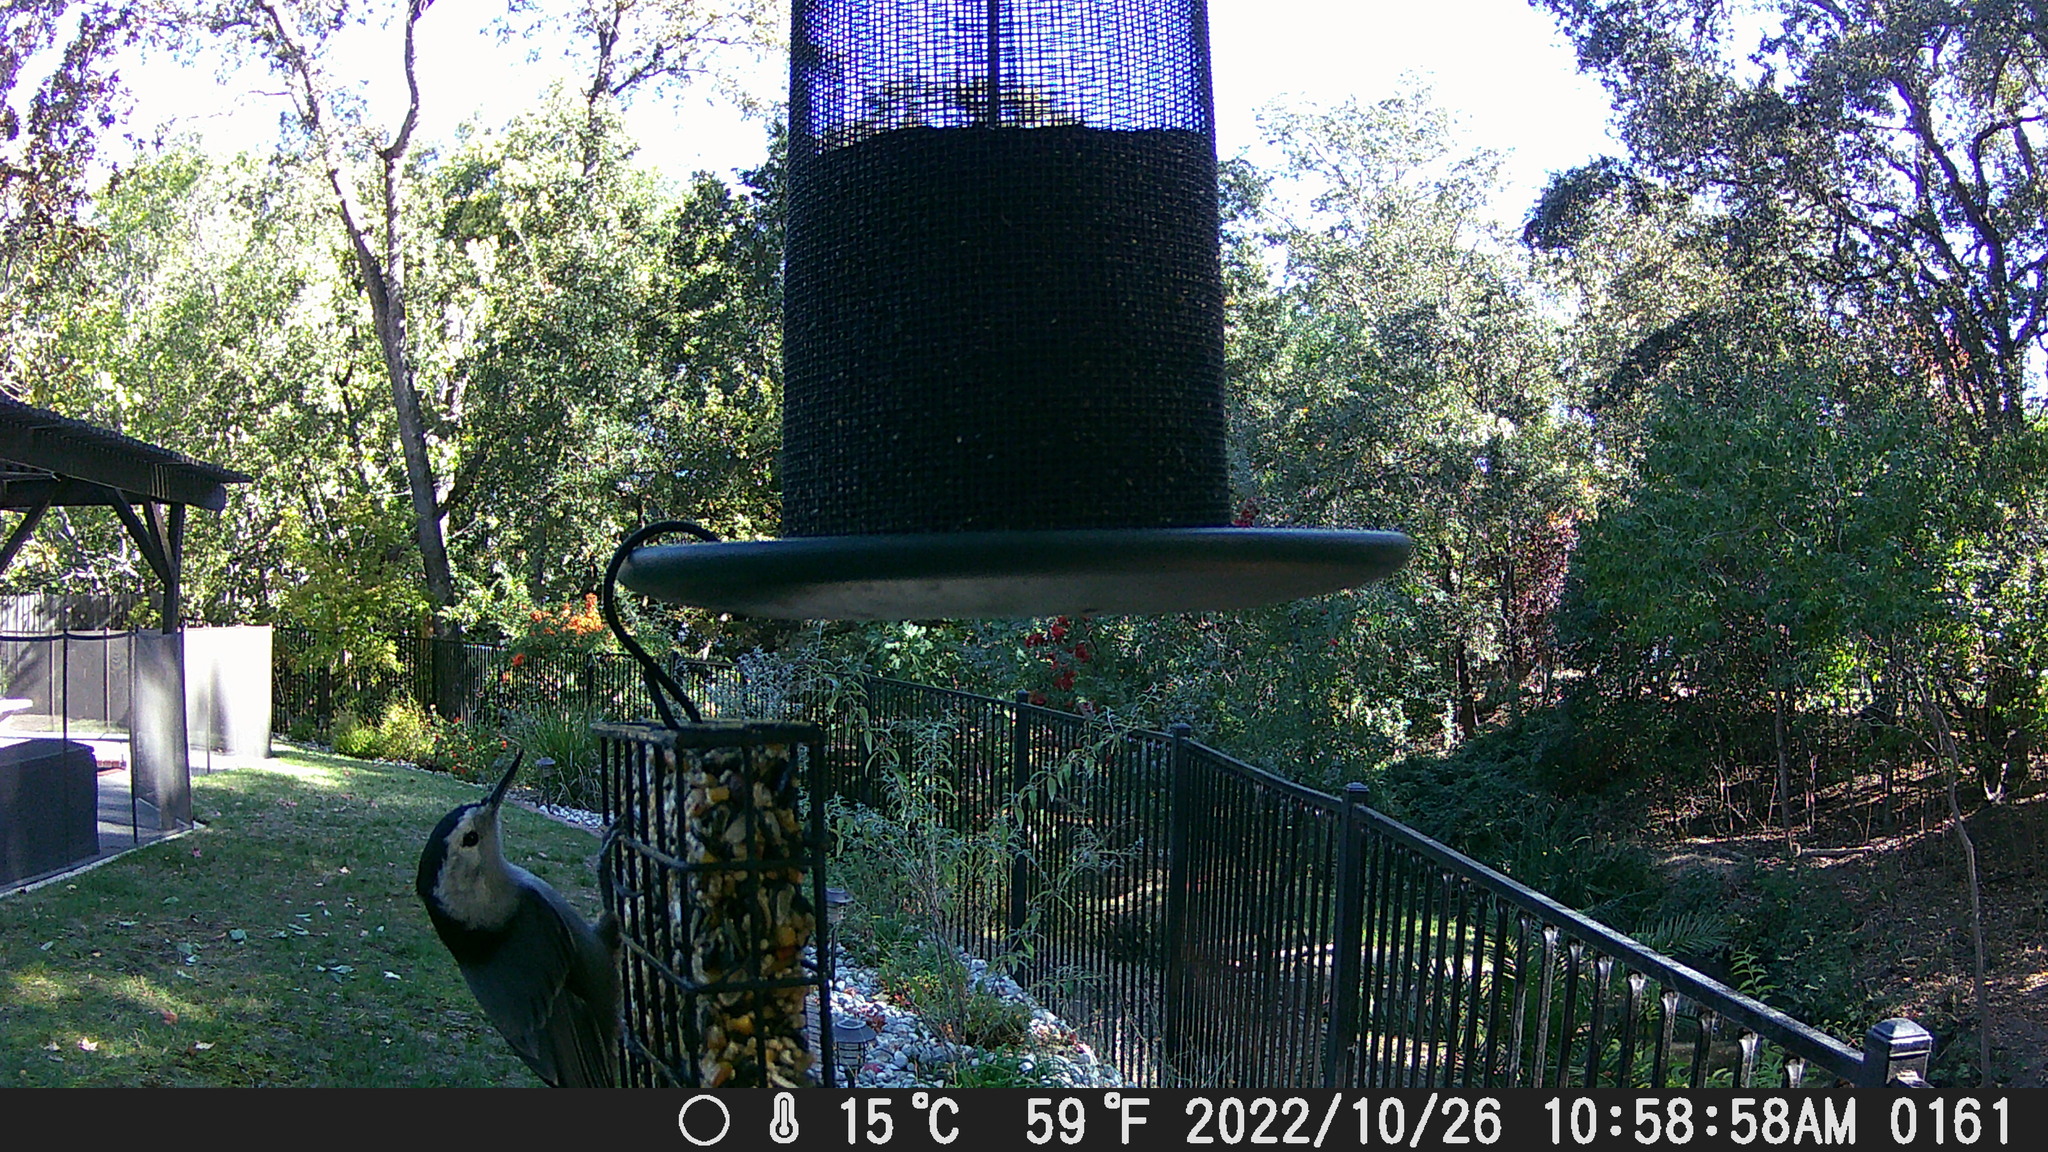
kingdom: Animalia
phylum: Chordata
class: Aves
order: Passeriformes
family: Sittidae
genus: Sitta
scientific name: Sitta carolinensis
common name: White-breasted nuthatch
